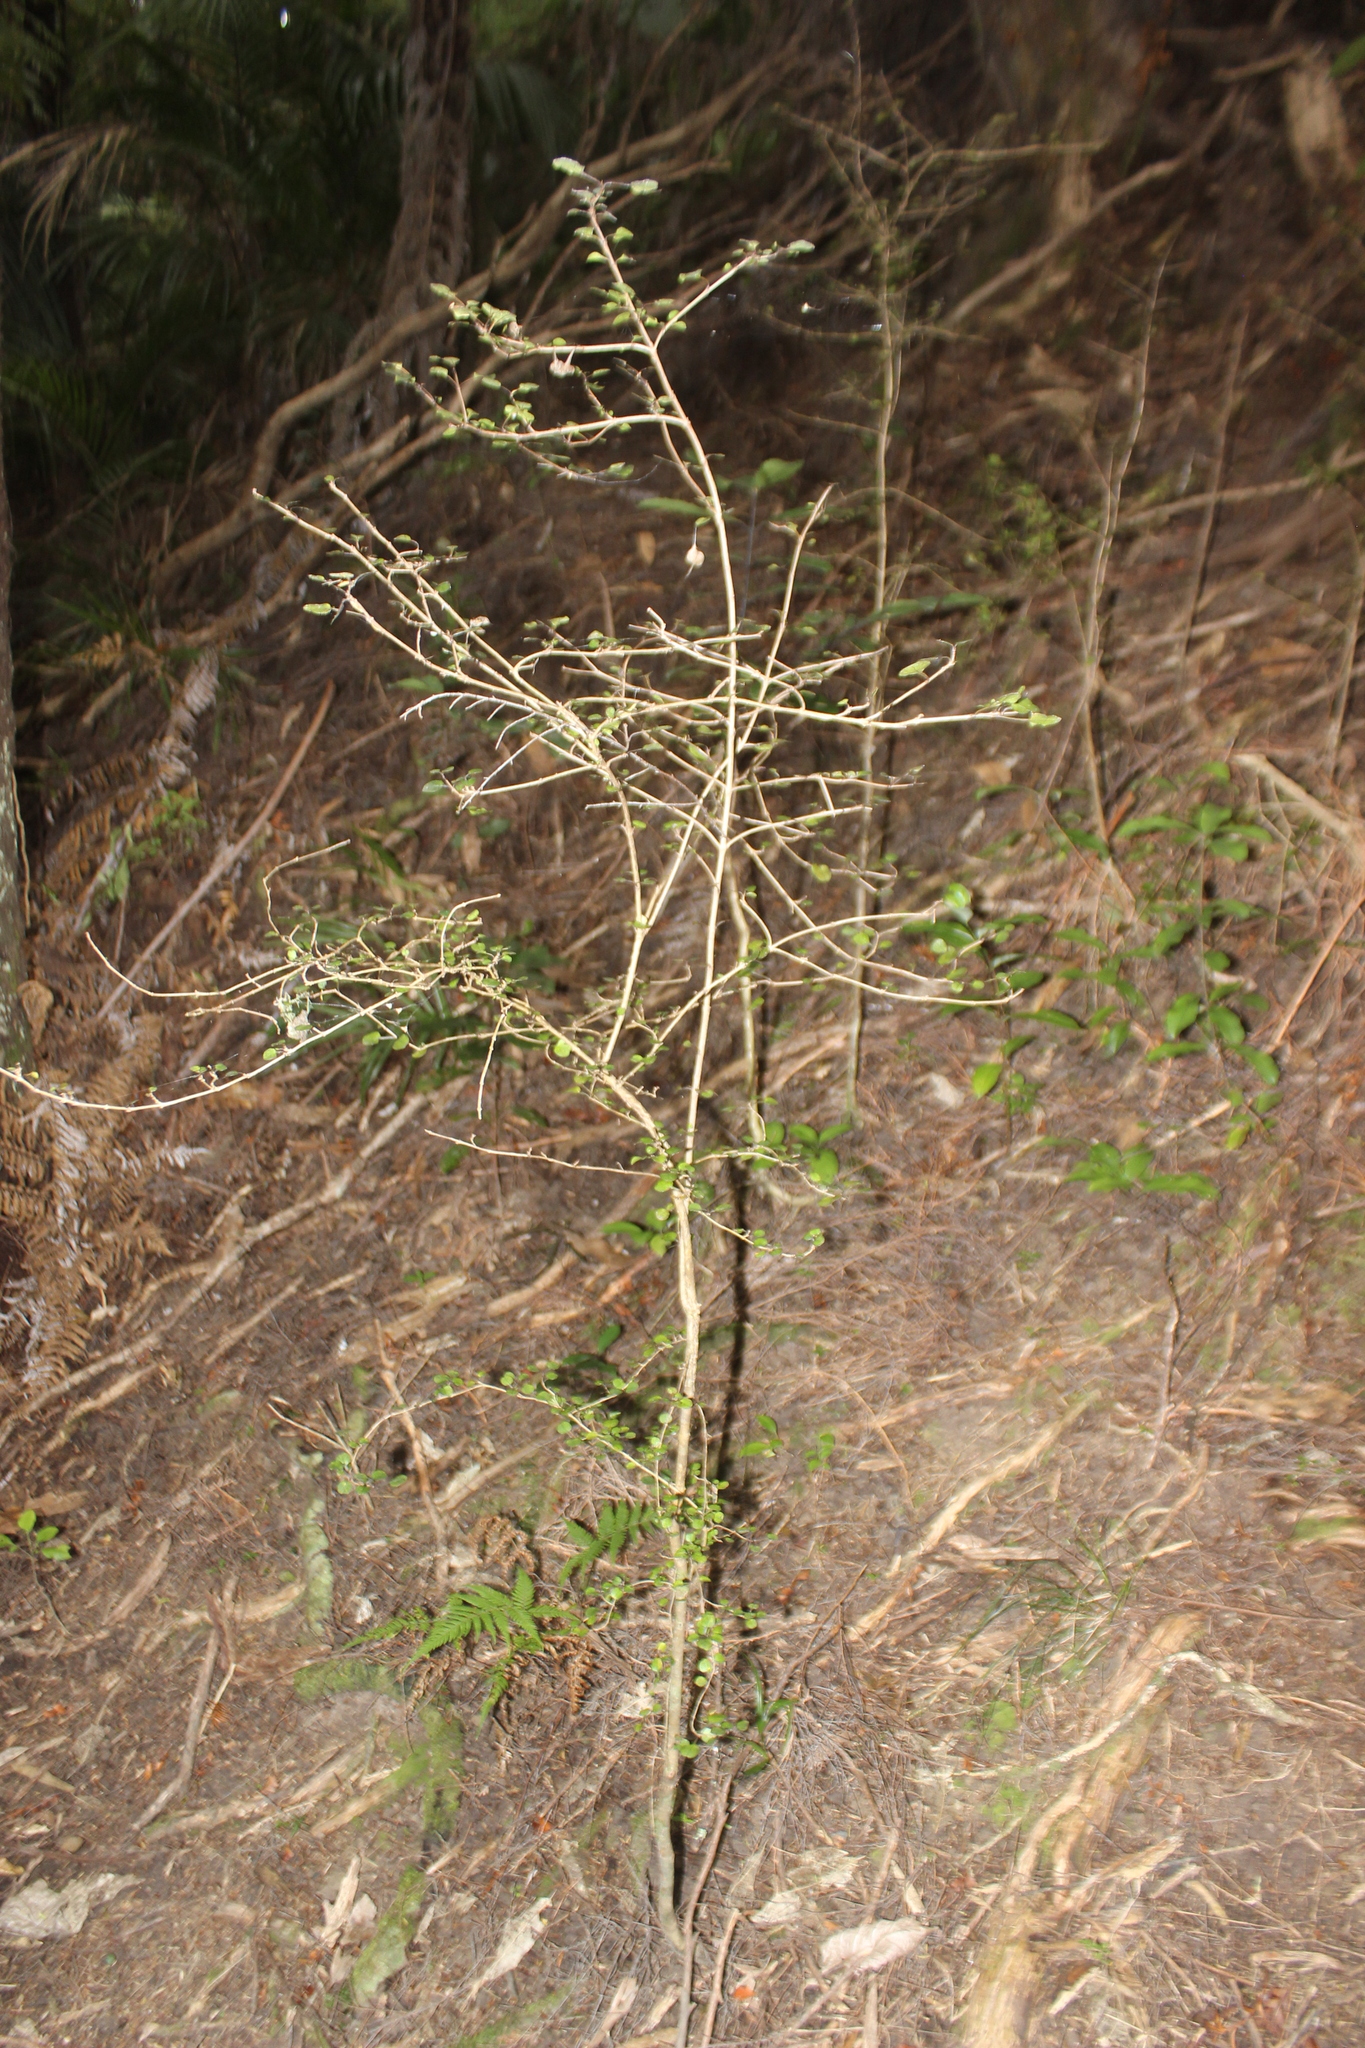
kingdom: Plantae
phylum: Tracheophyta
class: Magnoliopsida
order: Gentianales
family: Rubiaceae
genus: Coprosma
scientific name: Coprosma spathulata
